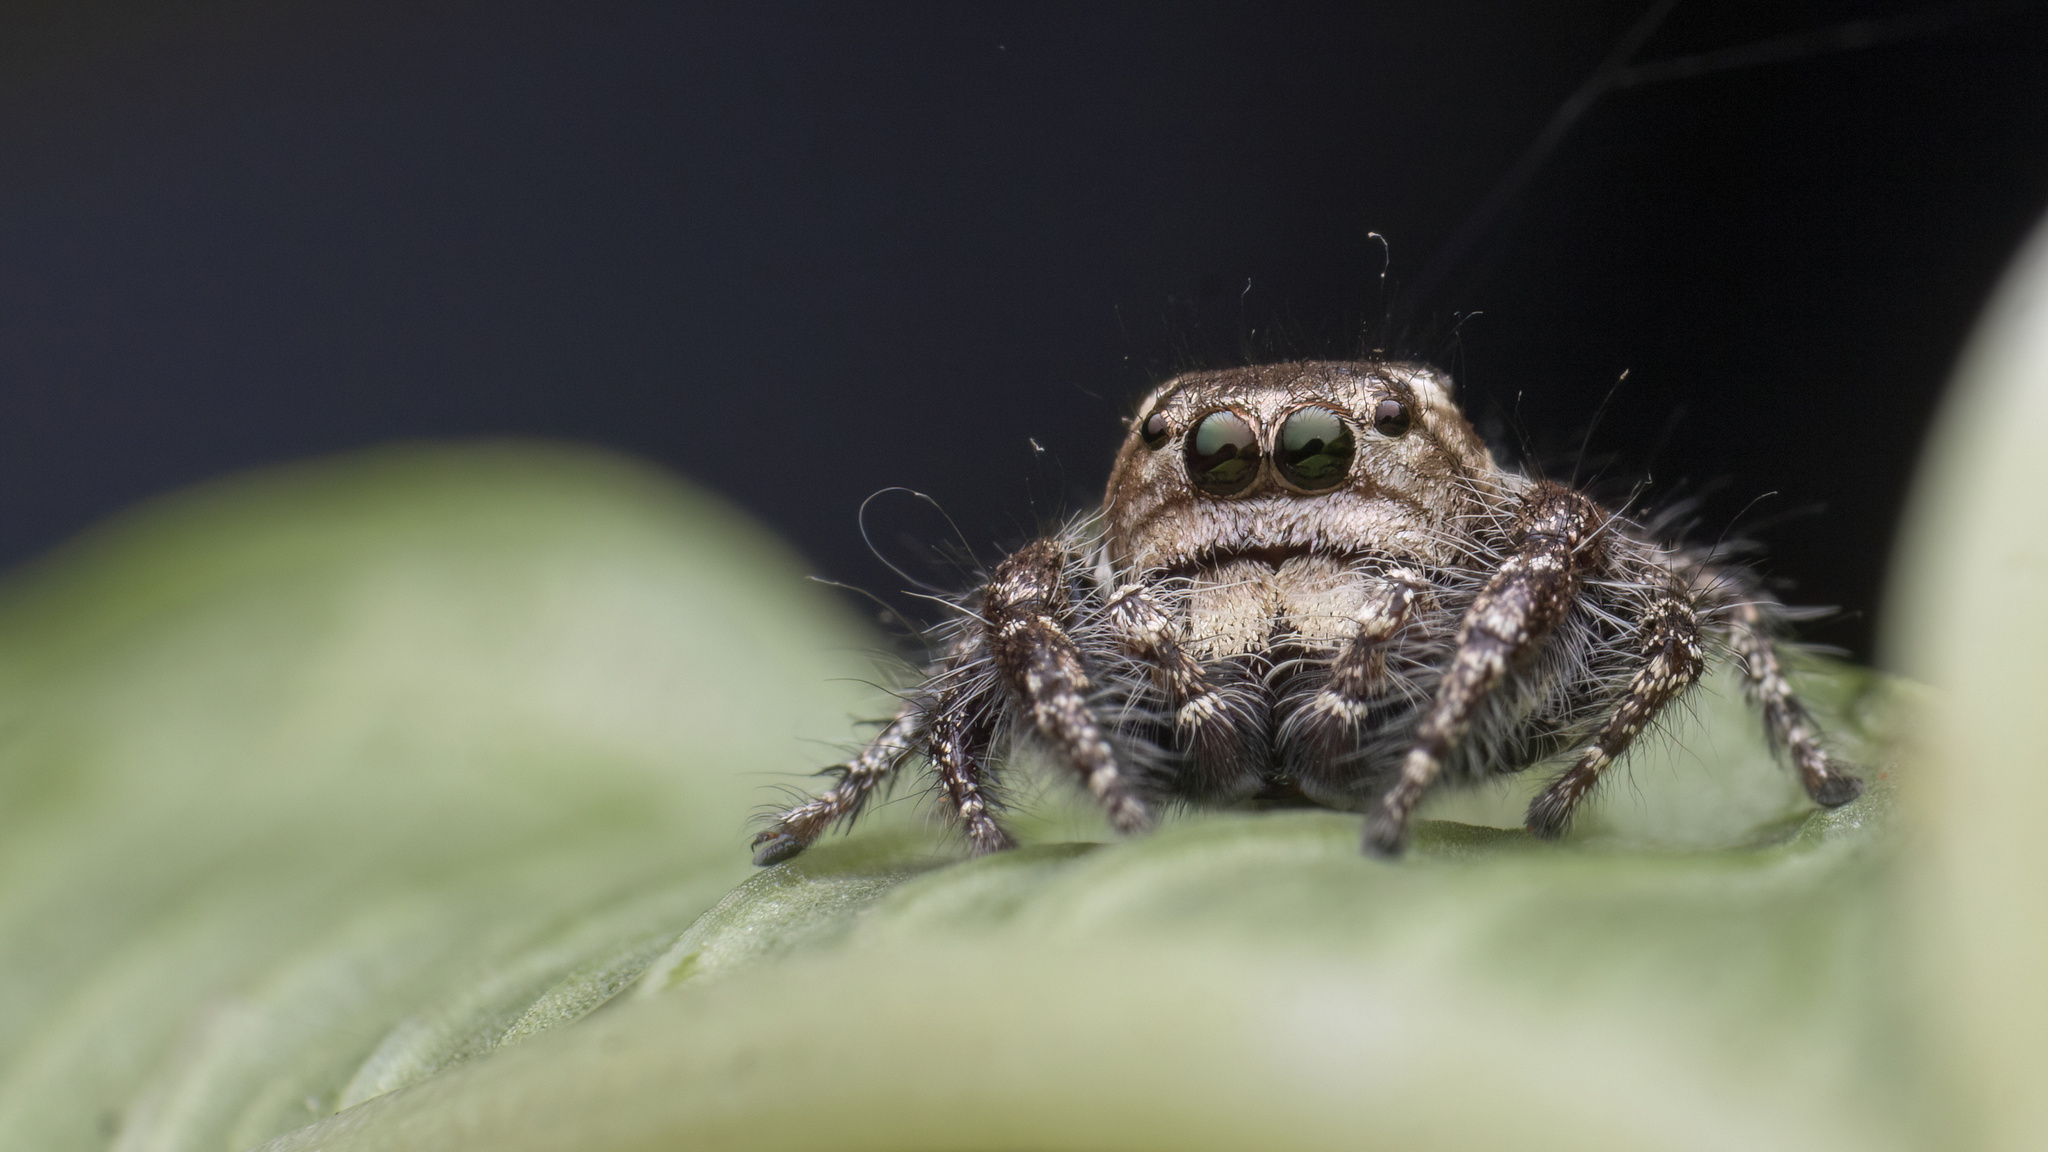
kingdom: Animalia
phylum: Arthropoda
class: Arachnida
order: Araneae
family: Salticidae
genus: Hyllus
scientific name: Hyllus semicupreus
